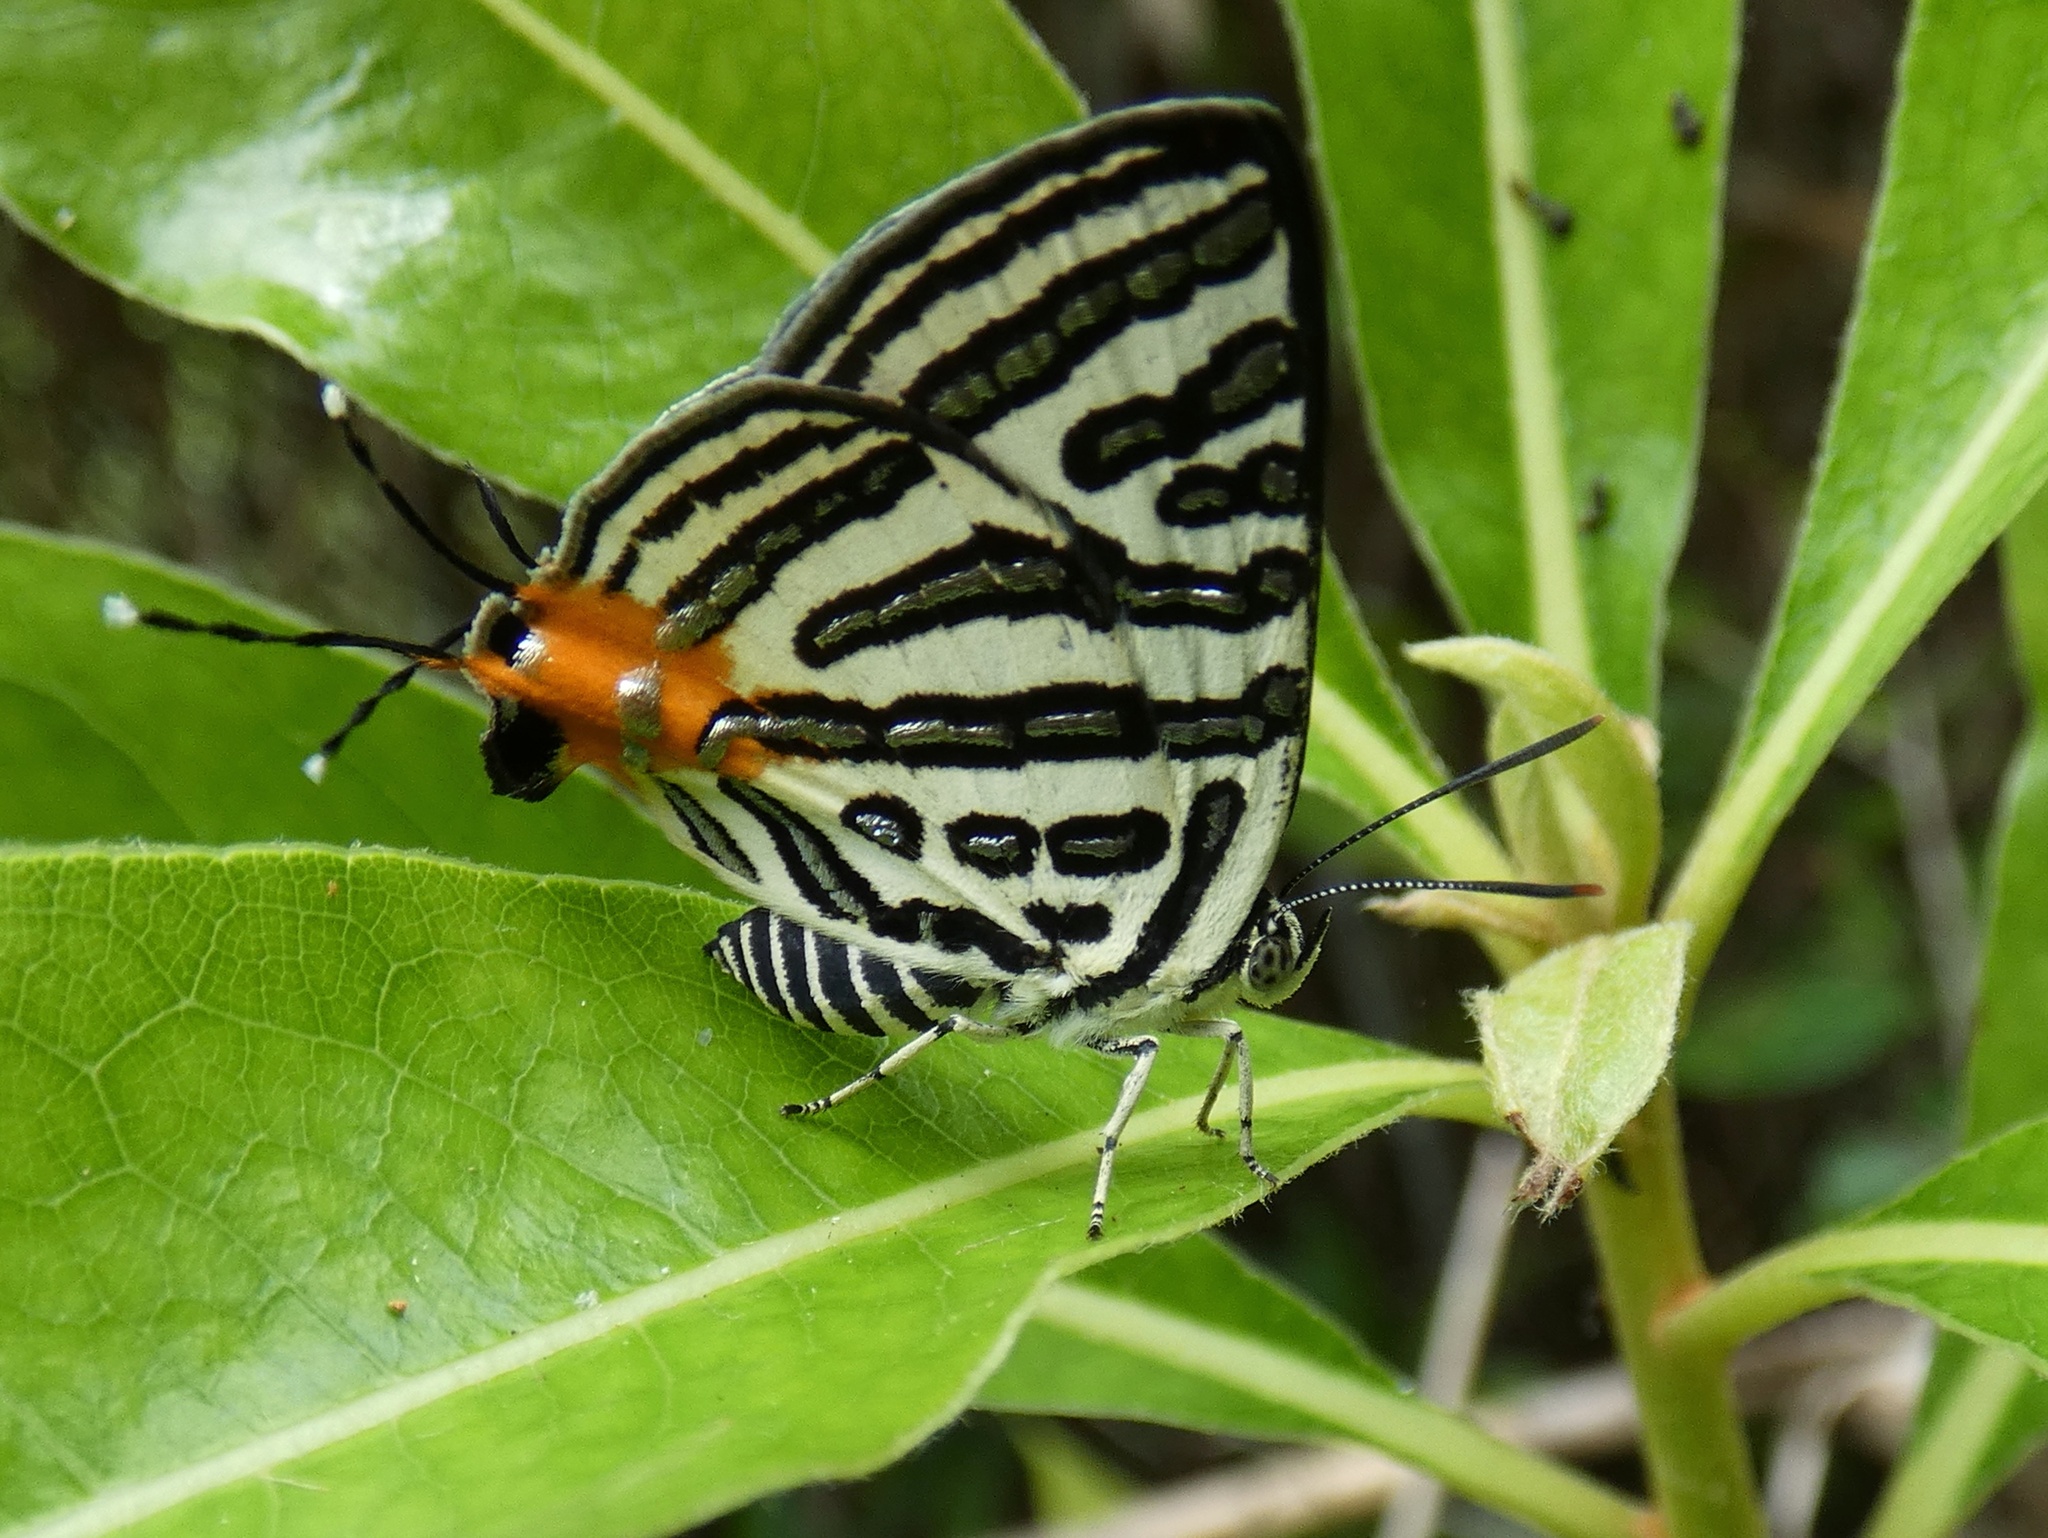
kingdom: Animalia
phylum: Arthropoda
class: Insecta
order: Lepidoptera
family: Lycaenidae
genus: Cigaritis
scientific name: Cigaritis
